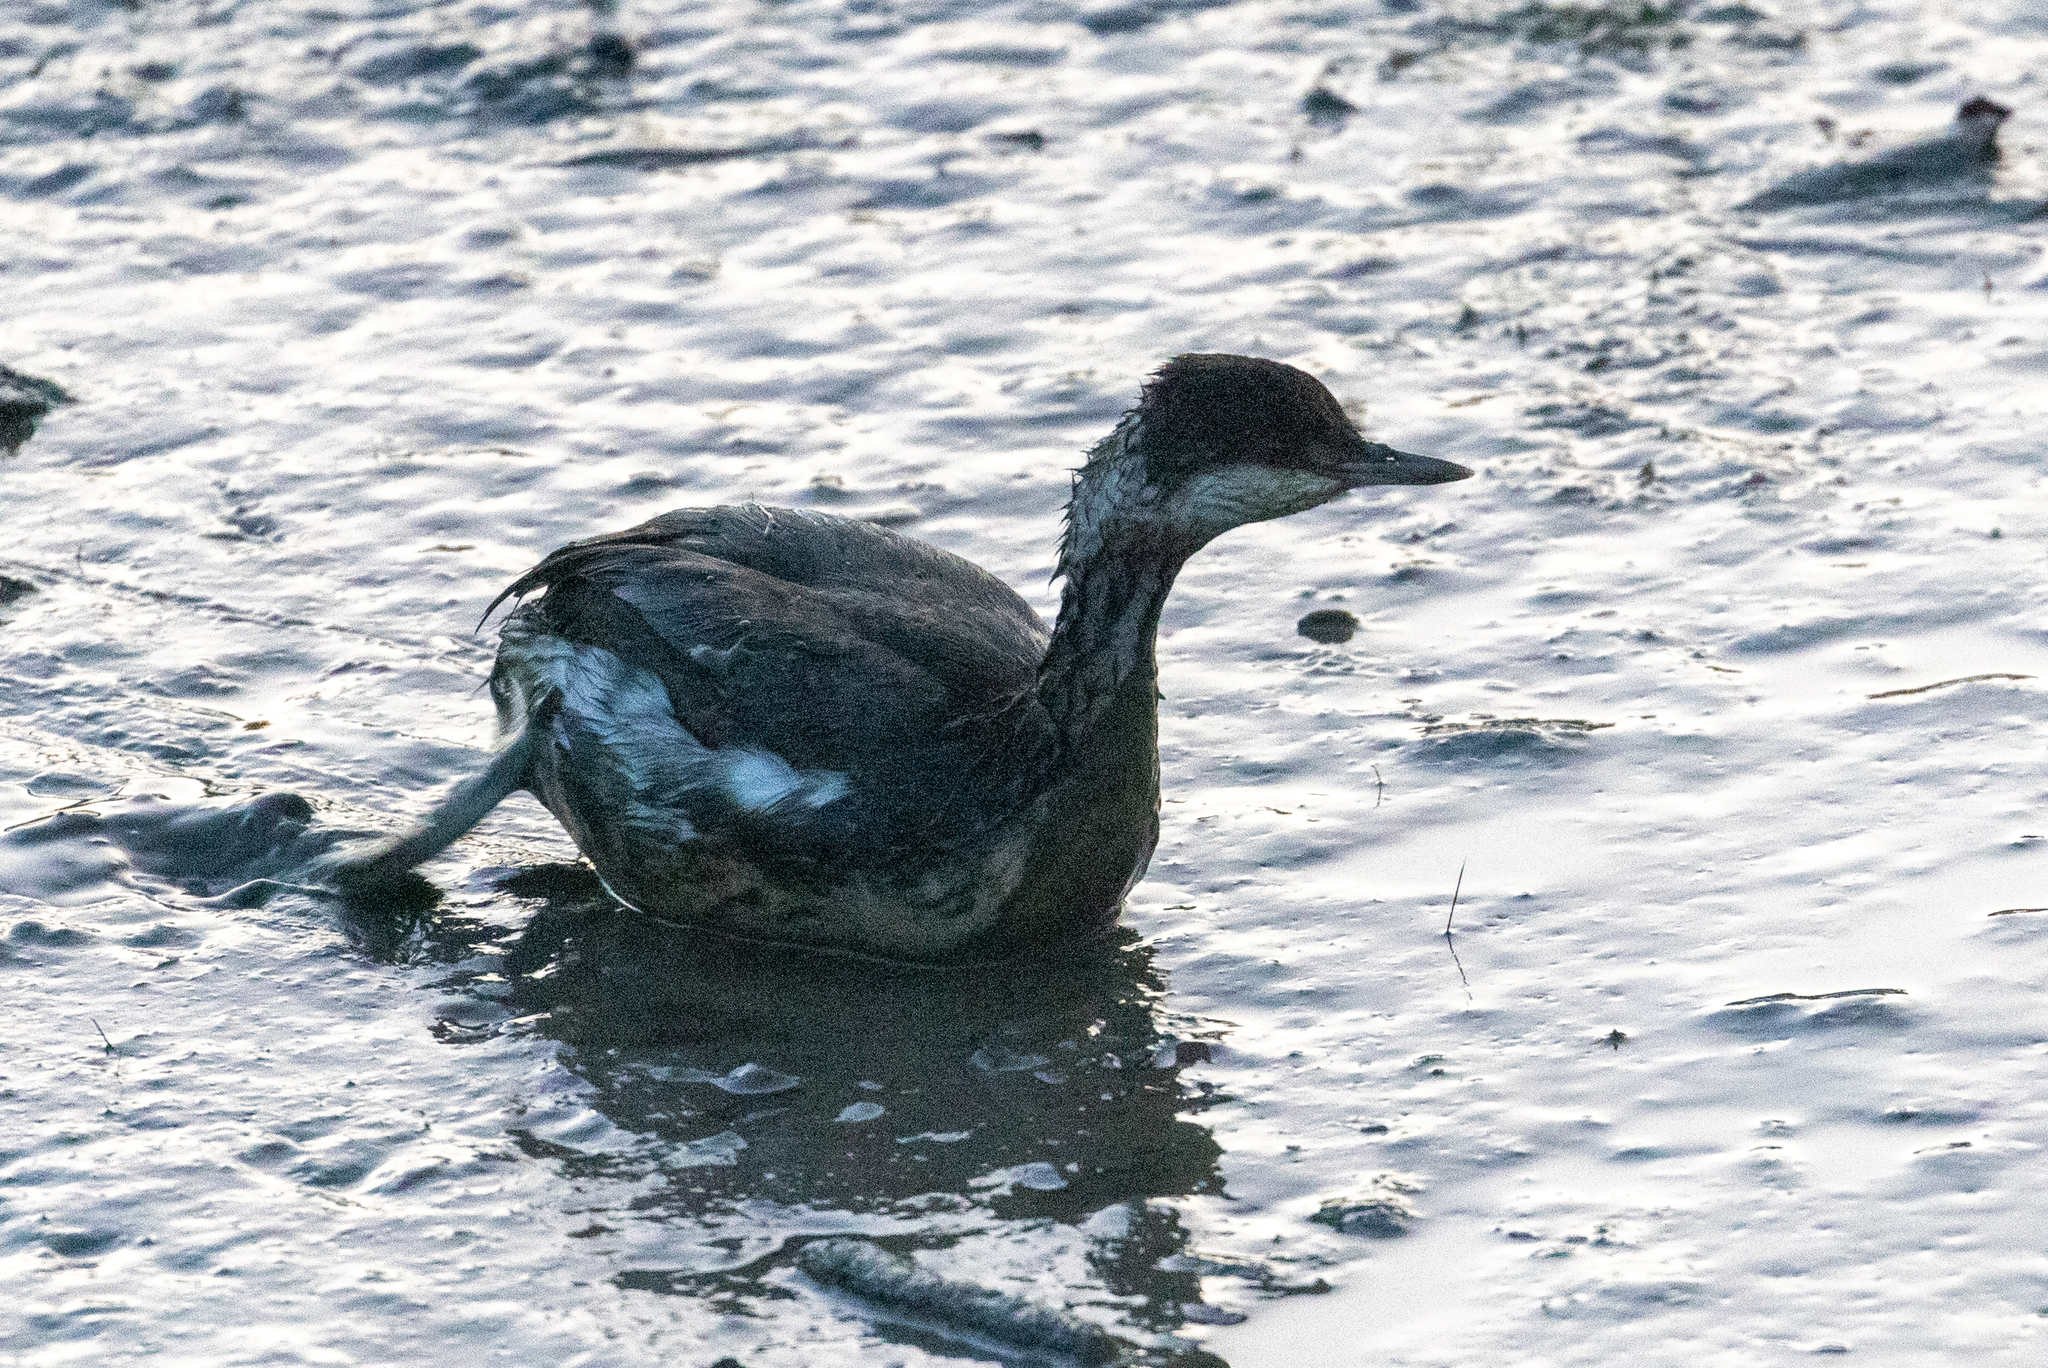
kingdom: Animalia
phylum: Chordata
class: Aves
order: Podicipediformes
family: Podicipedidae
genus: Podiceps
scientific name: Podiceps auritus
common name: Horned grebe
